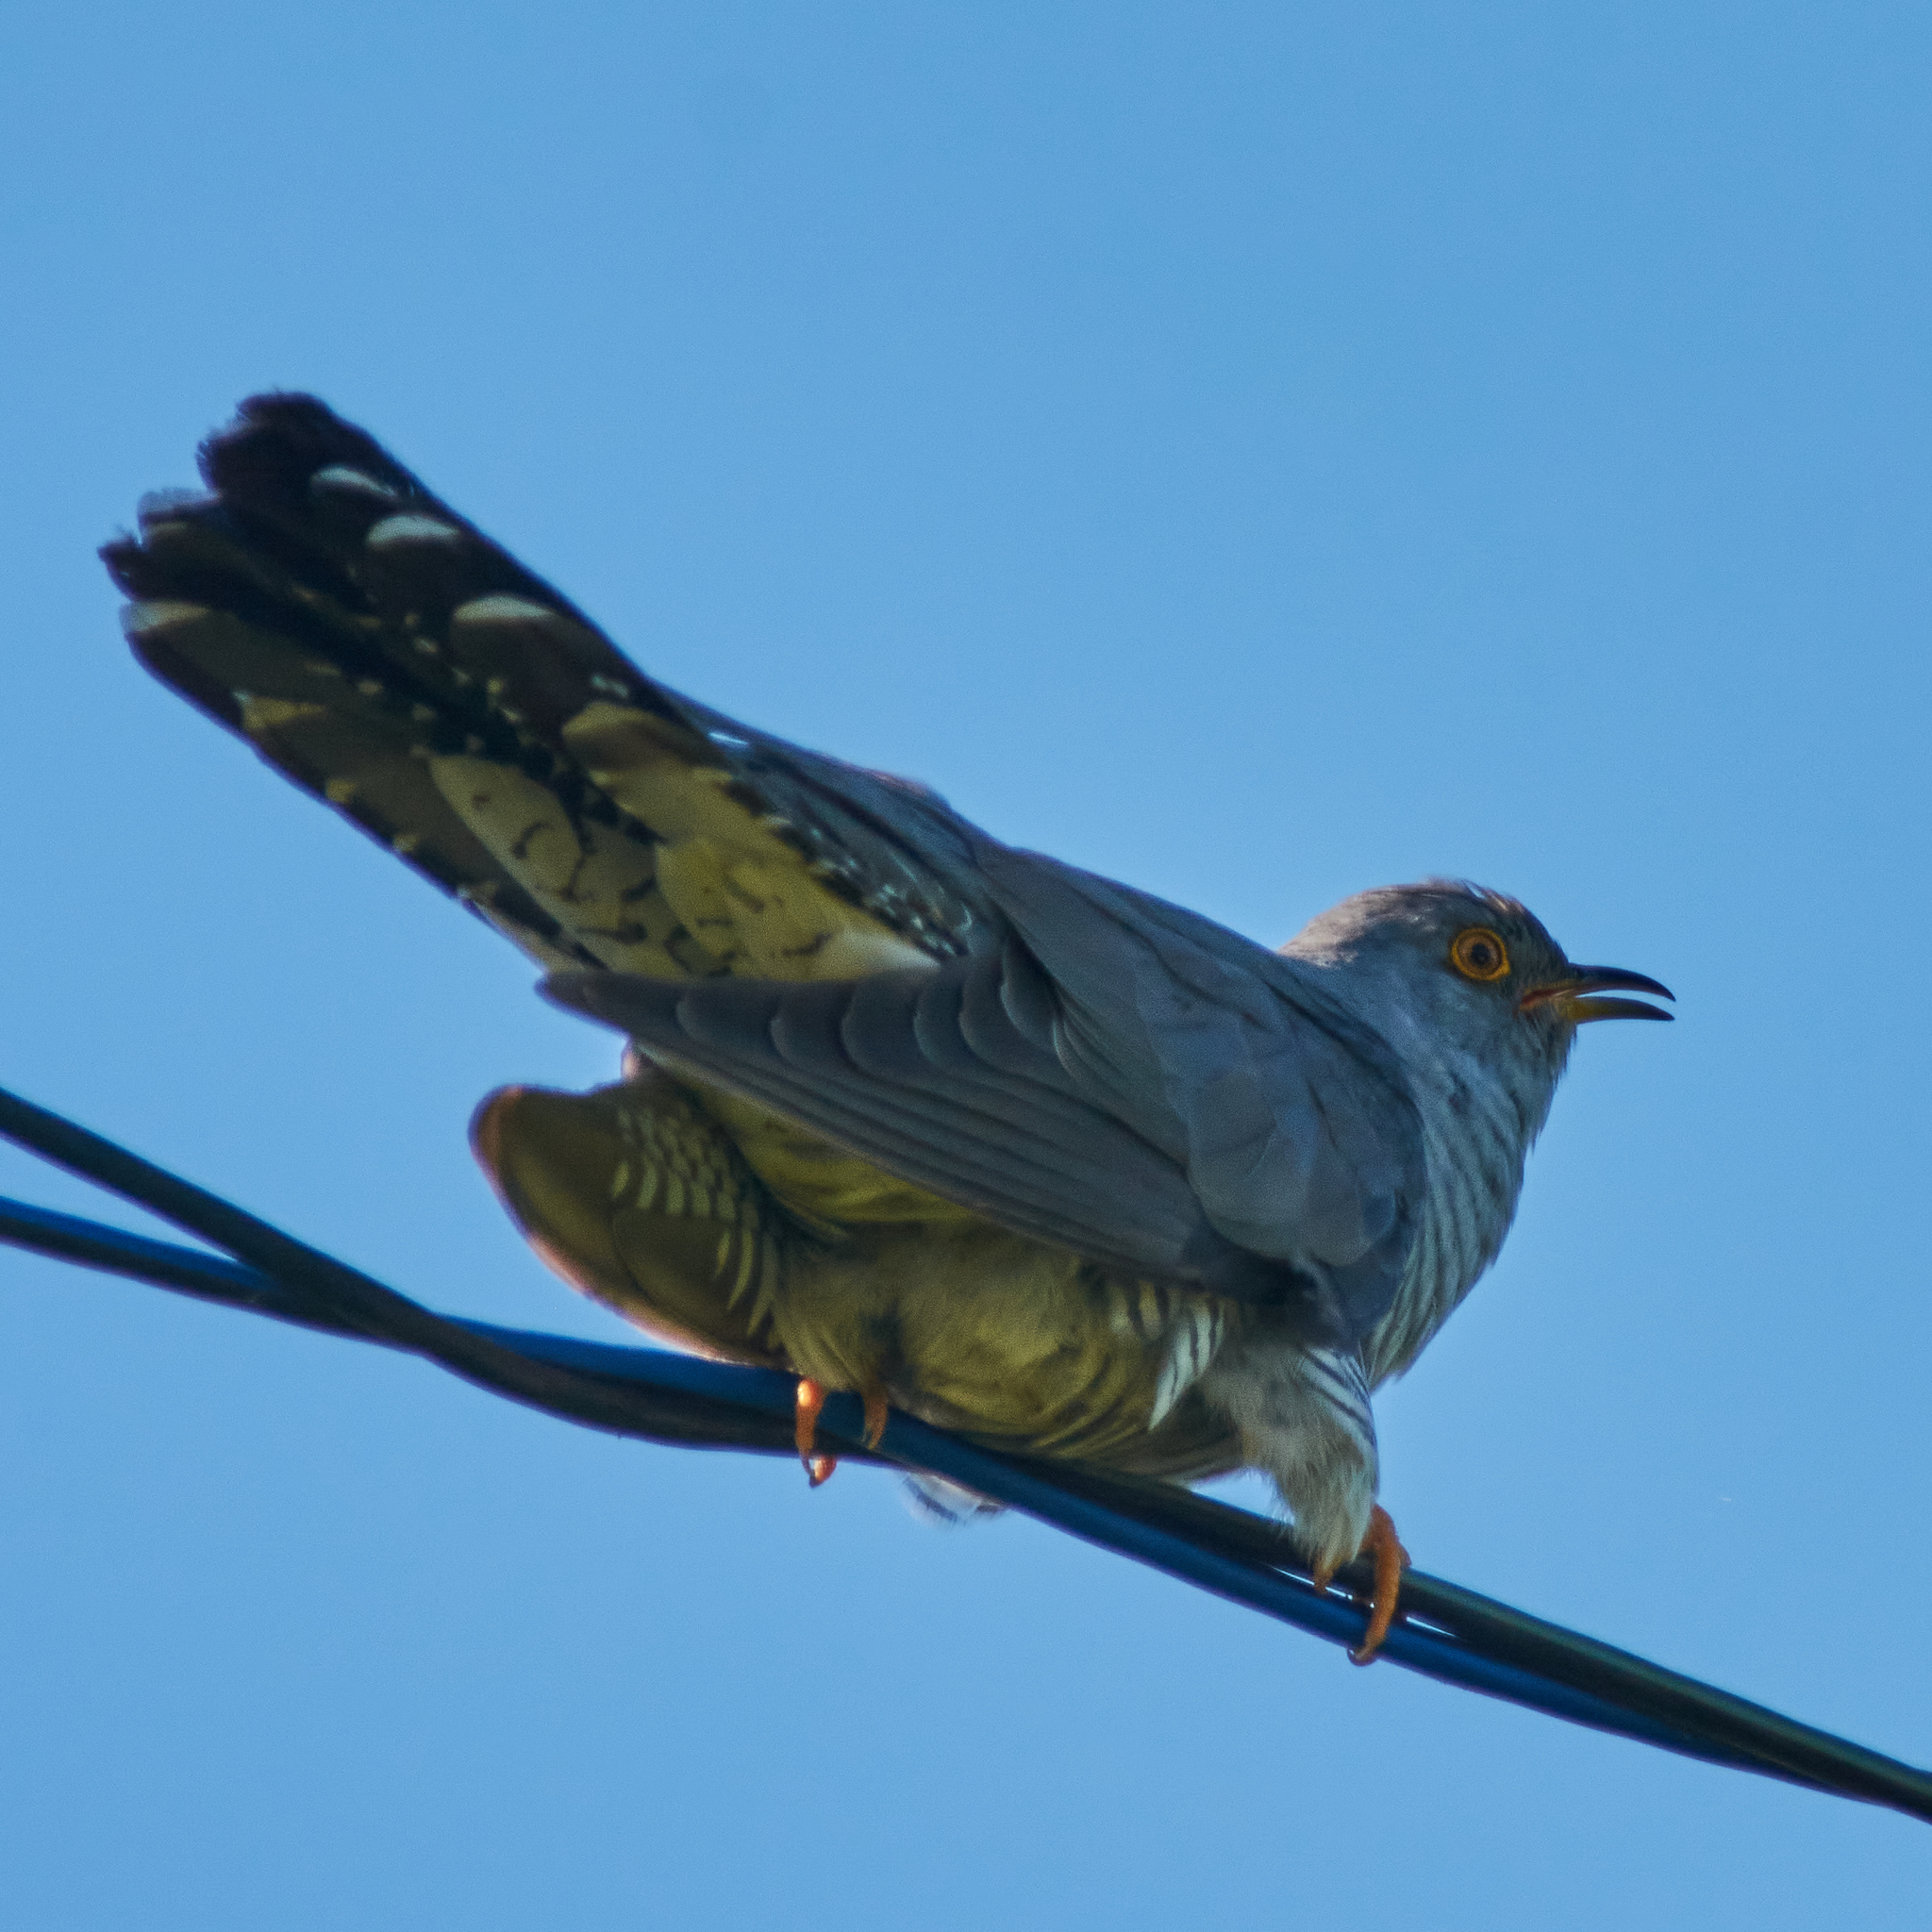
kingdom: Animalia
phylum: Chordata
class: Aves
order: Cuculiformes
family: Cuculidae
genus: Cuculus
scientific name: Cuculus canorus
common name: Common cuckoo
